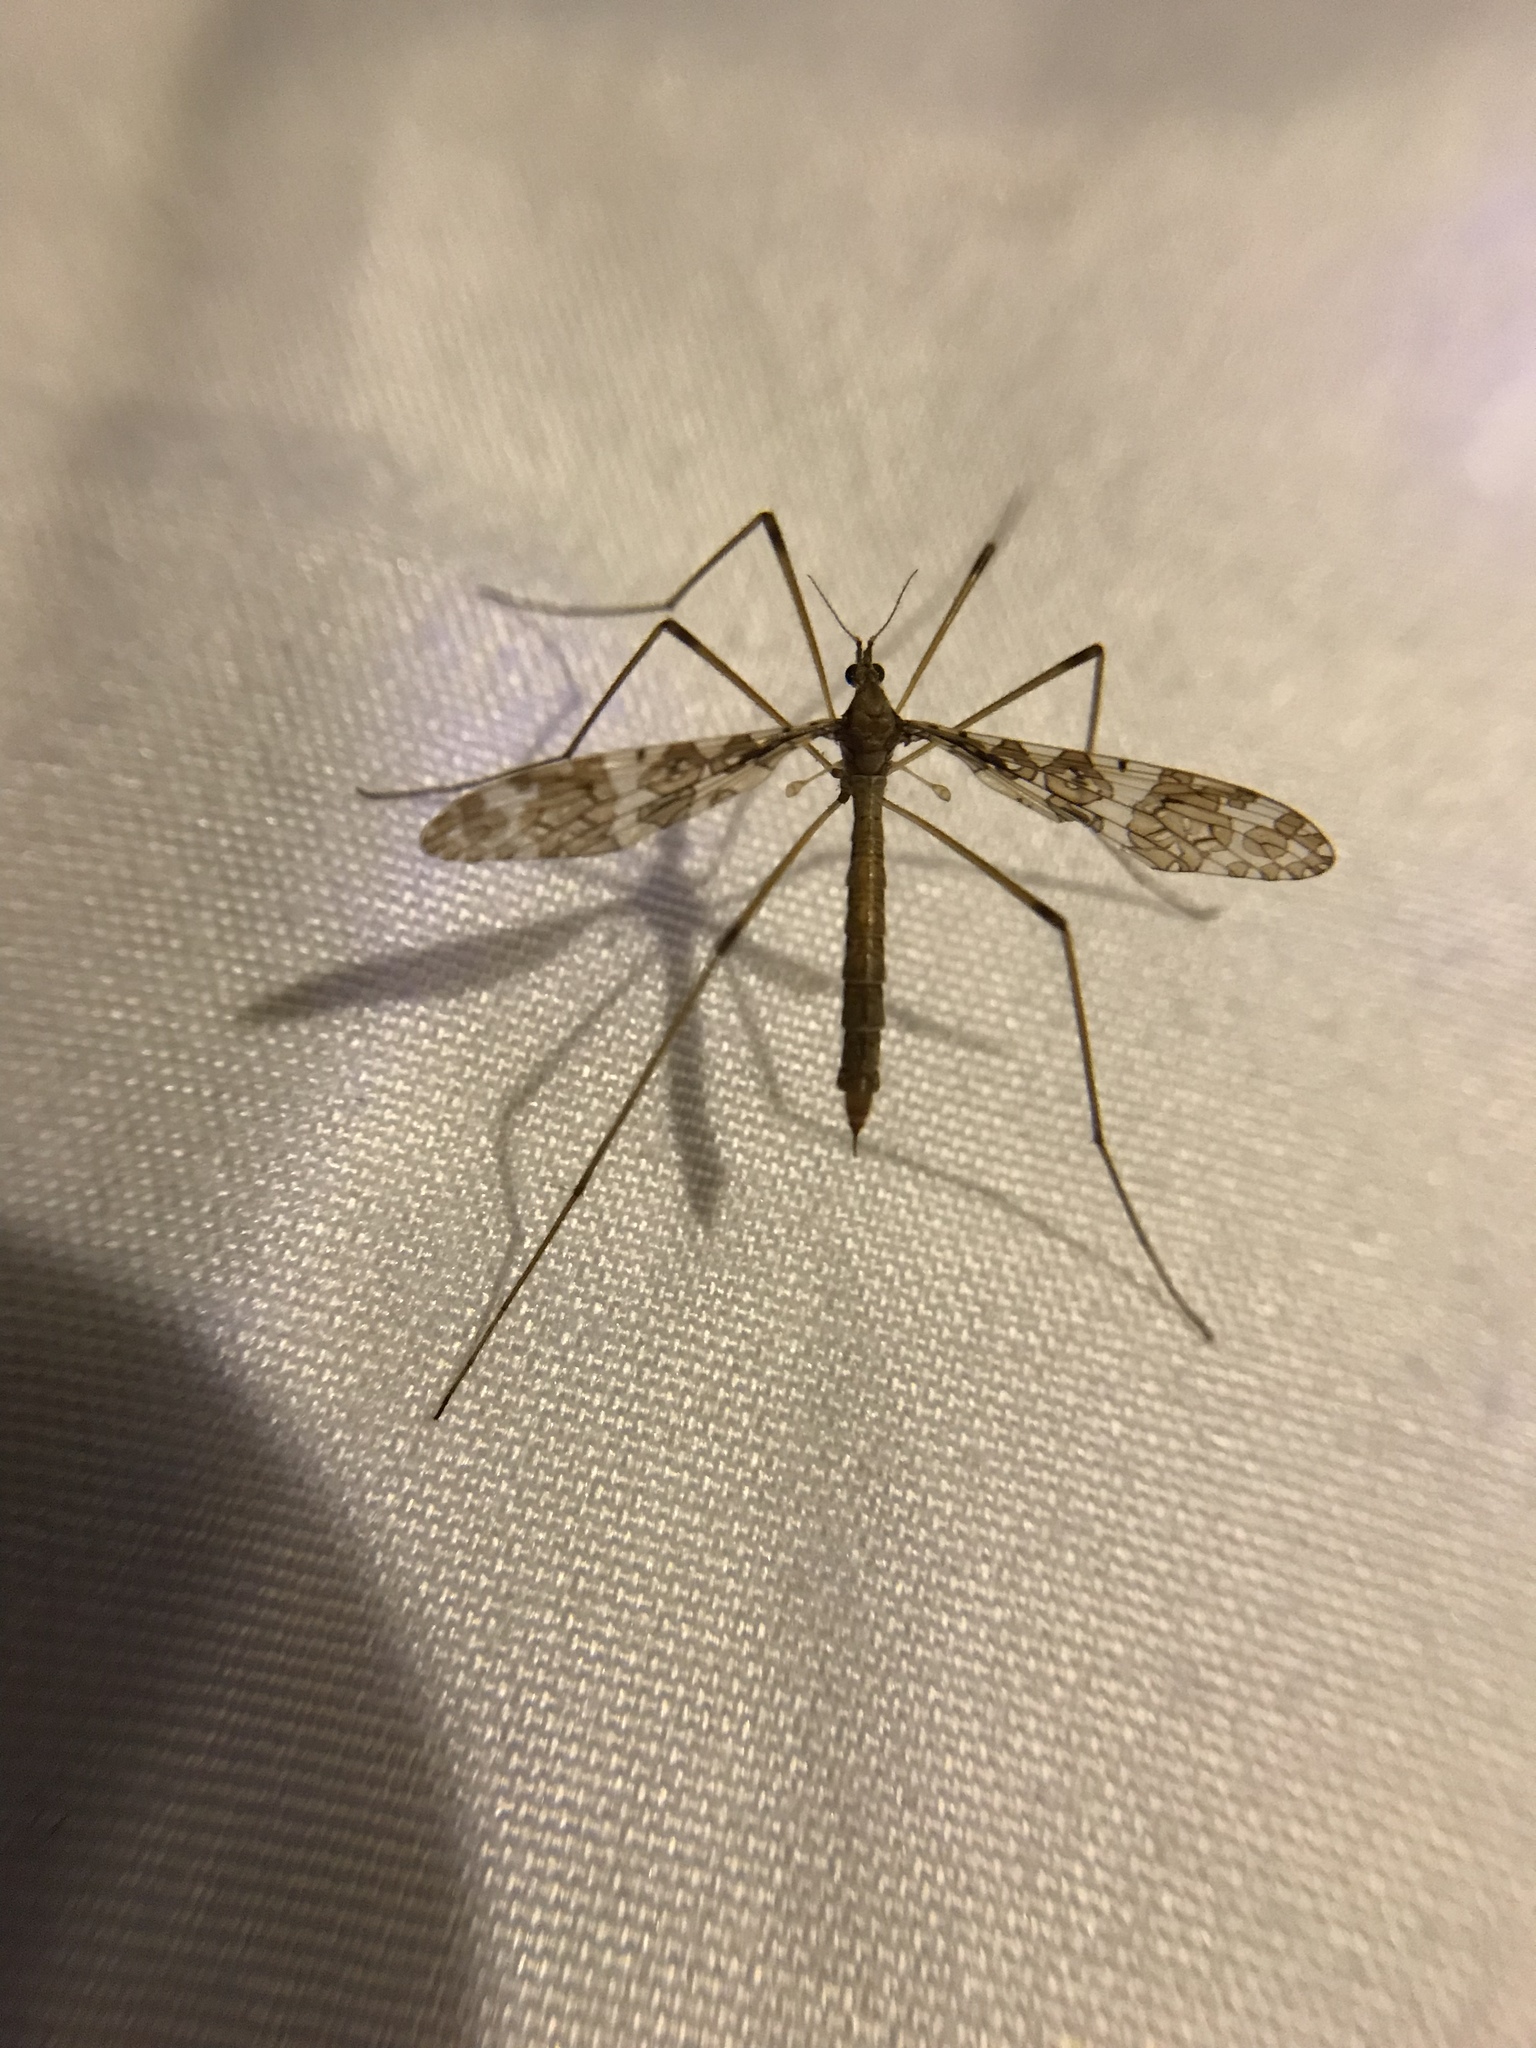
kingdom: Animalia
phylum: Arthropoda
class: Insecta
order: Diptera
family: Limoniidae
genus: Epiphragma
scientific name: Epiphragma fasciapenne
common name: Band-winged crane fly
